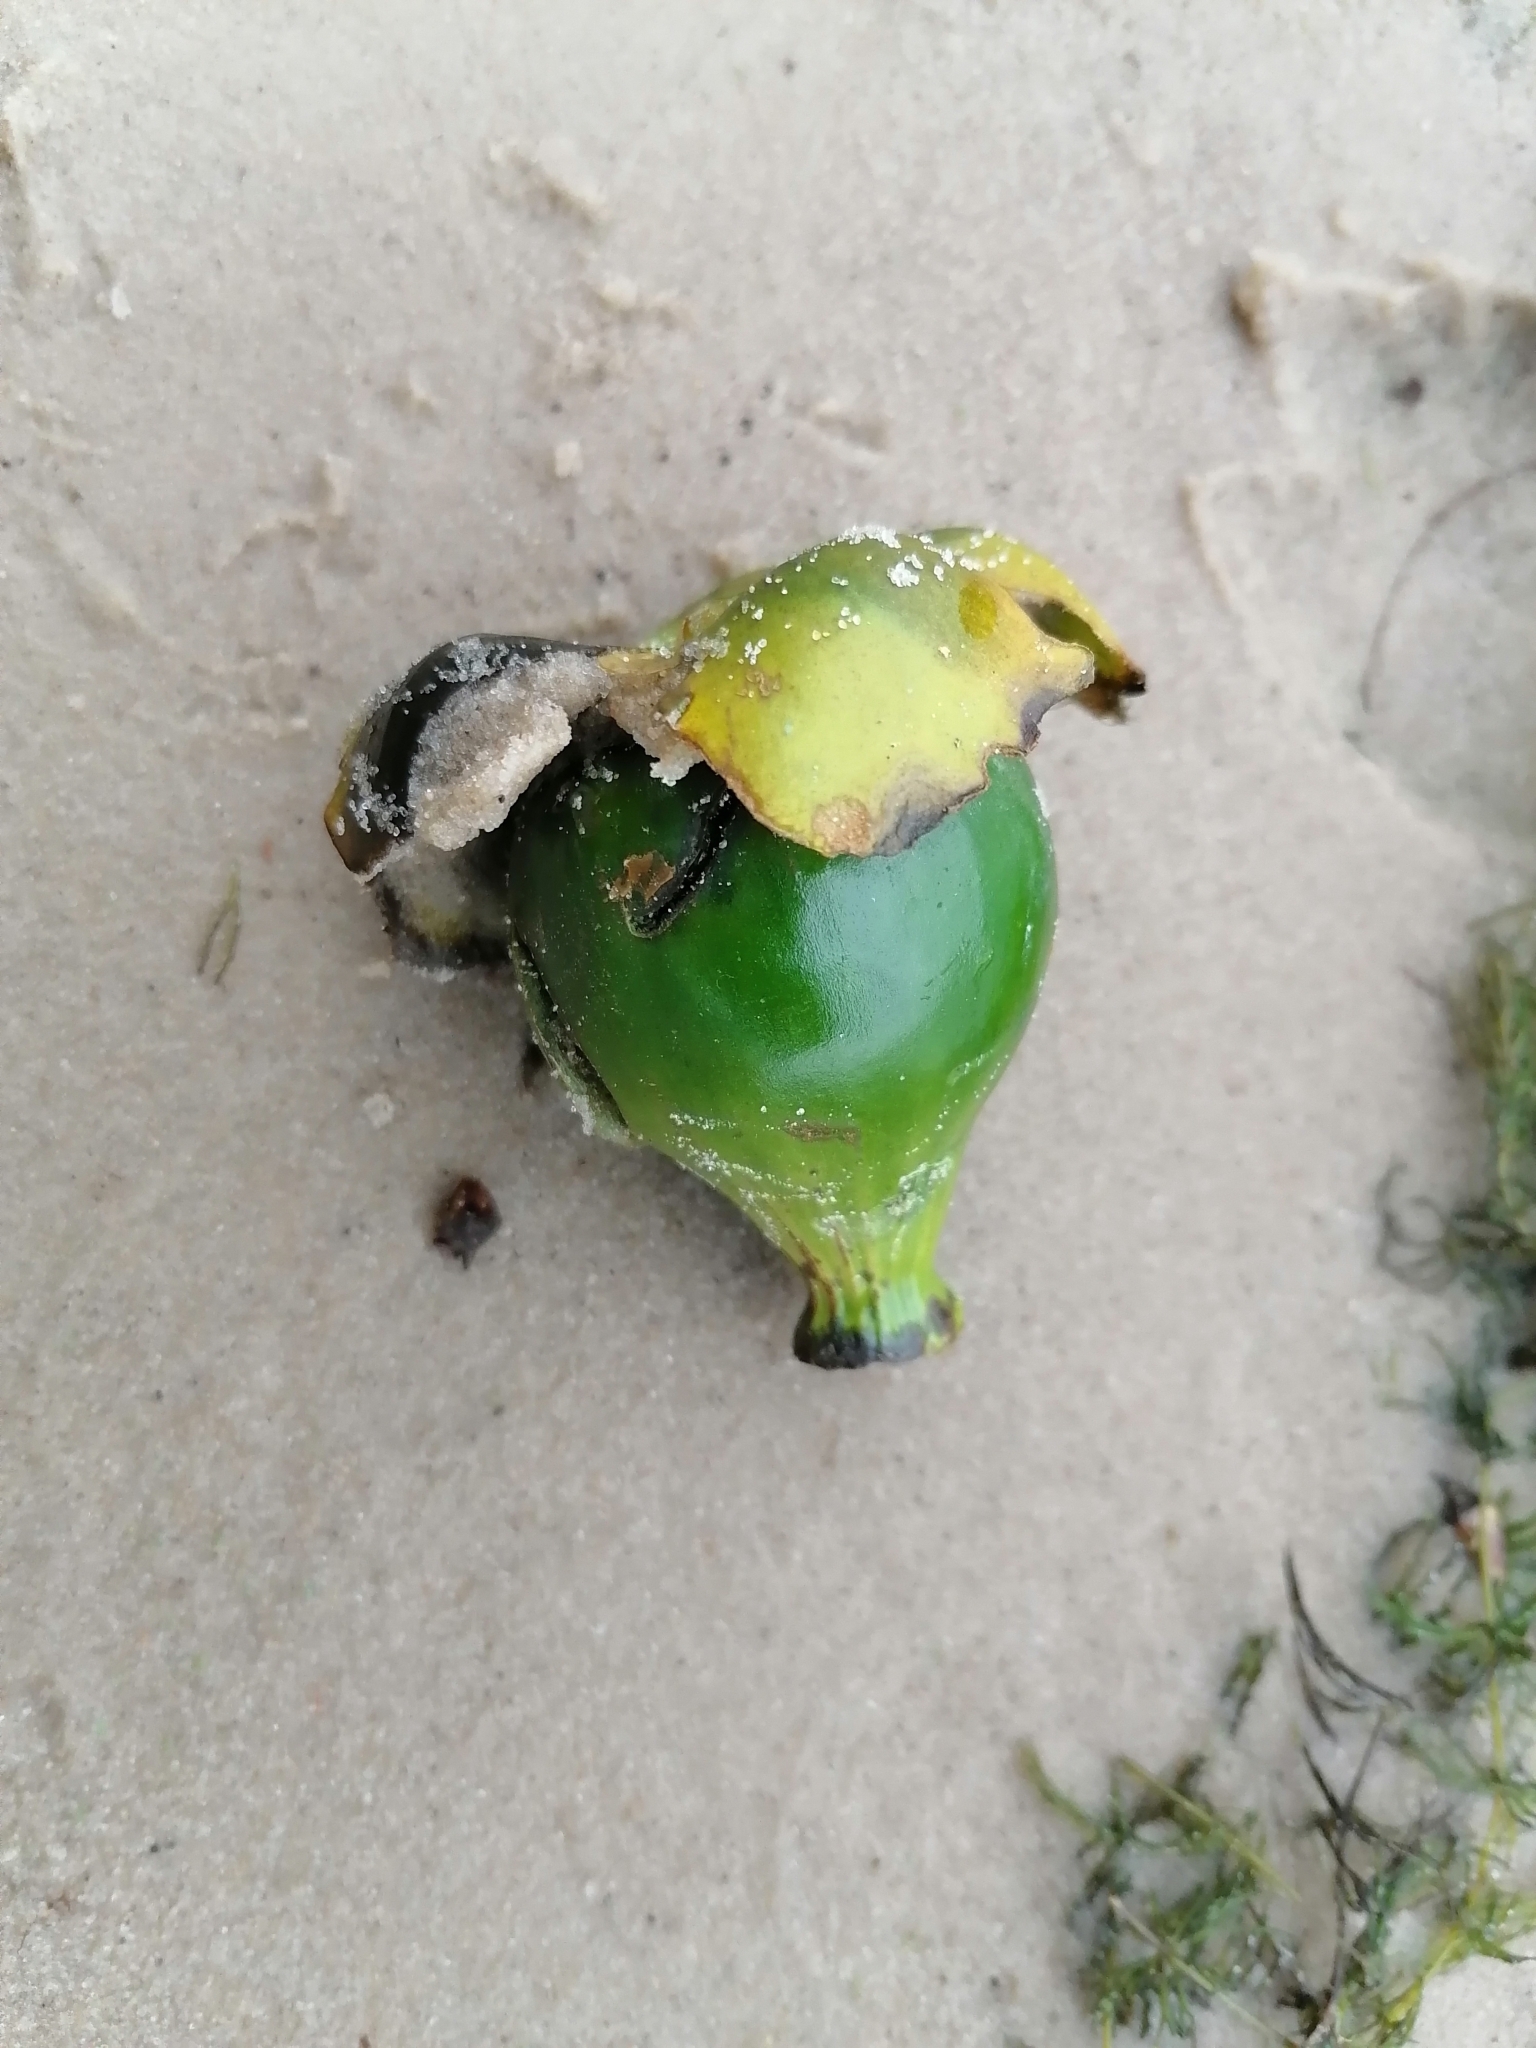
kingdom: Plantae
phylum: Tracheophyta
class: Magnoliopsida
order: Nymphaeales
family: Nymphaeaceae
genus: Nuphar
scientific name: Nuphar lutea
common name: Yellow water-lily
